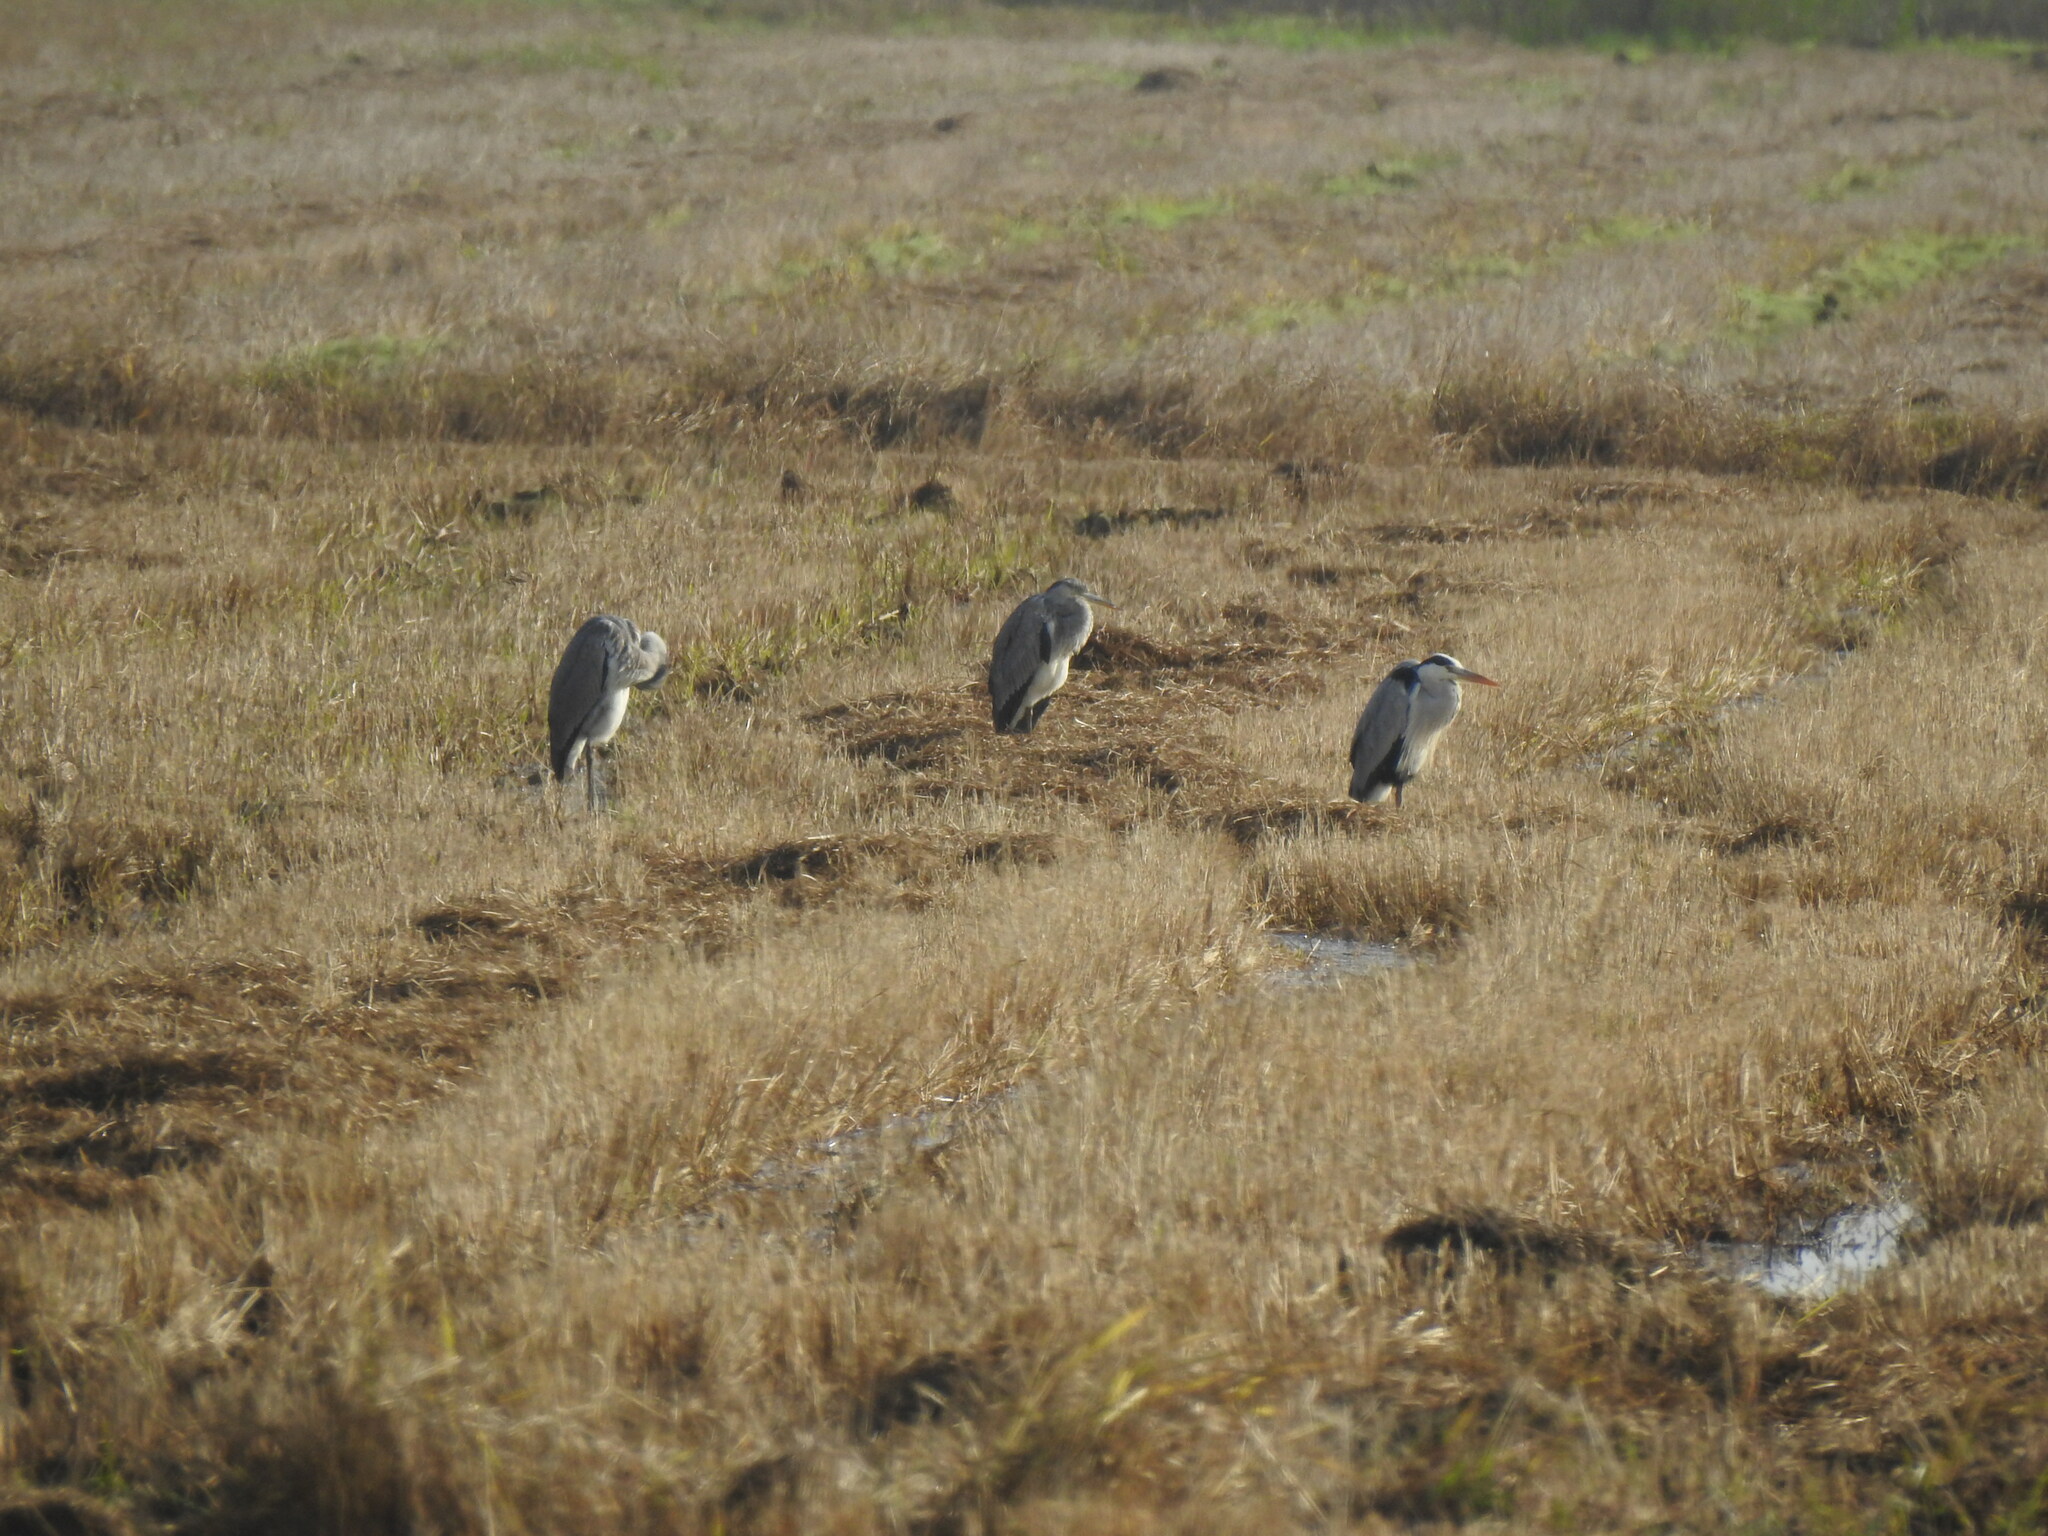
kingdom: Animalia
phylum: Chordata
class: Aves
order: Pelecaniformes
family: Ardeidae
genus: Ardea
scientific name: Ardea cinerea
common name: Grey heron
